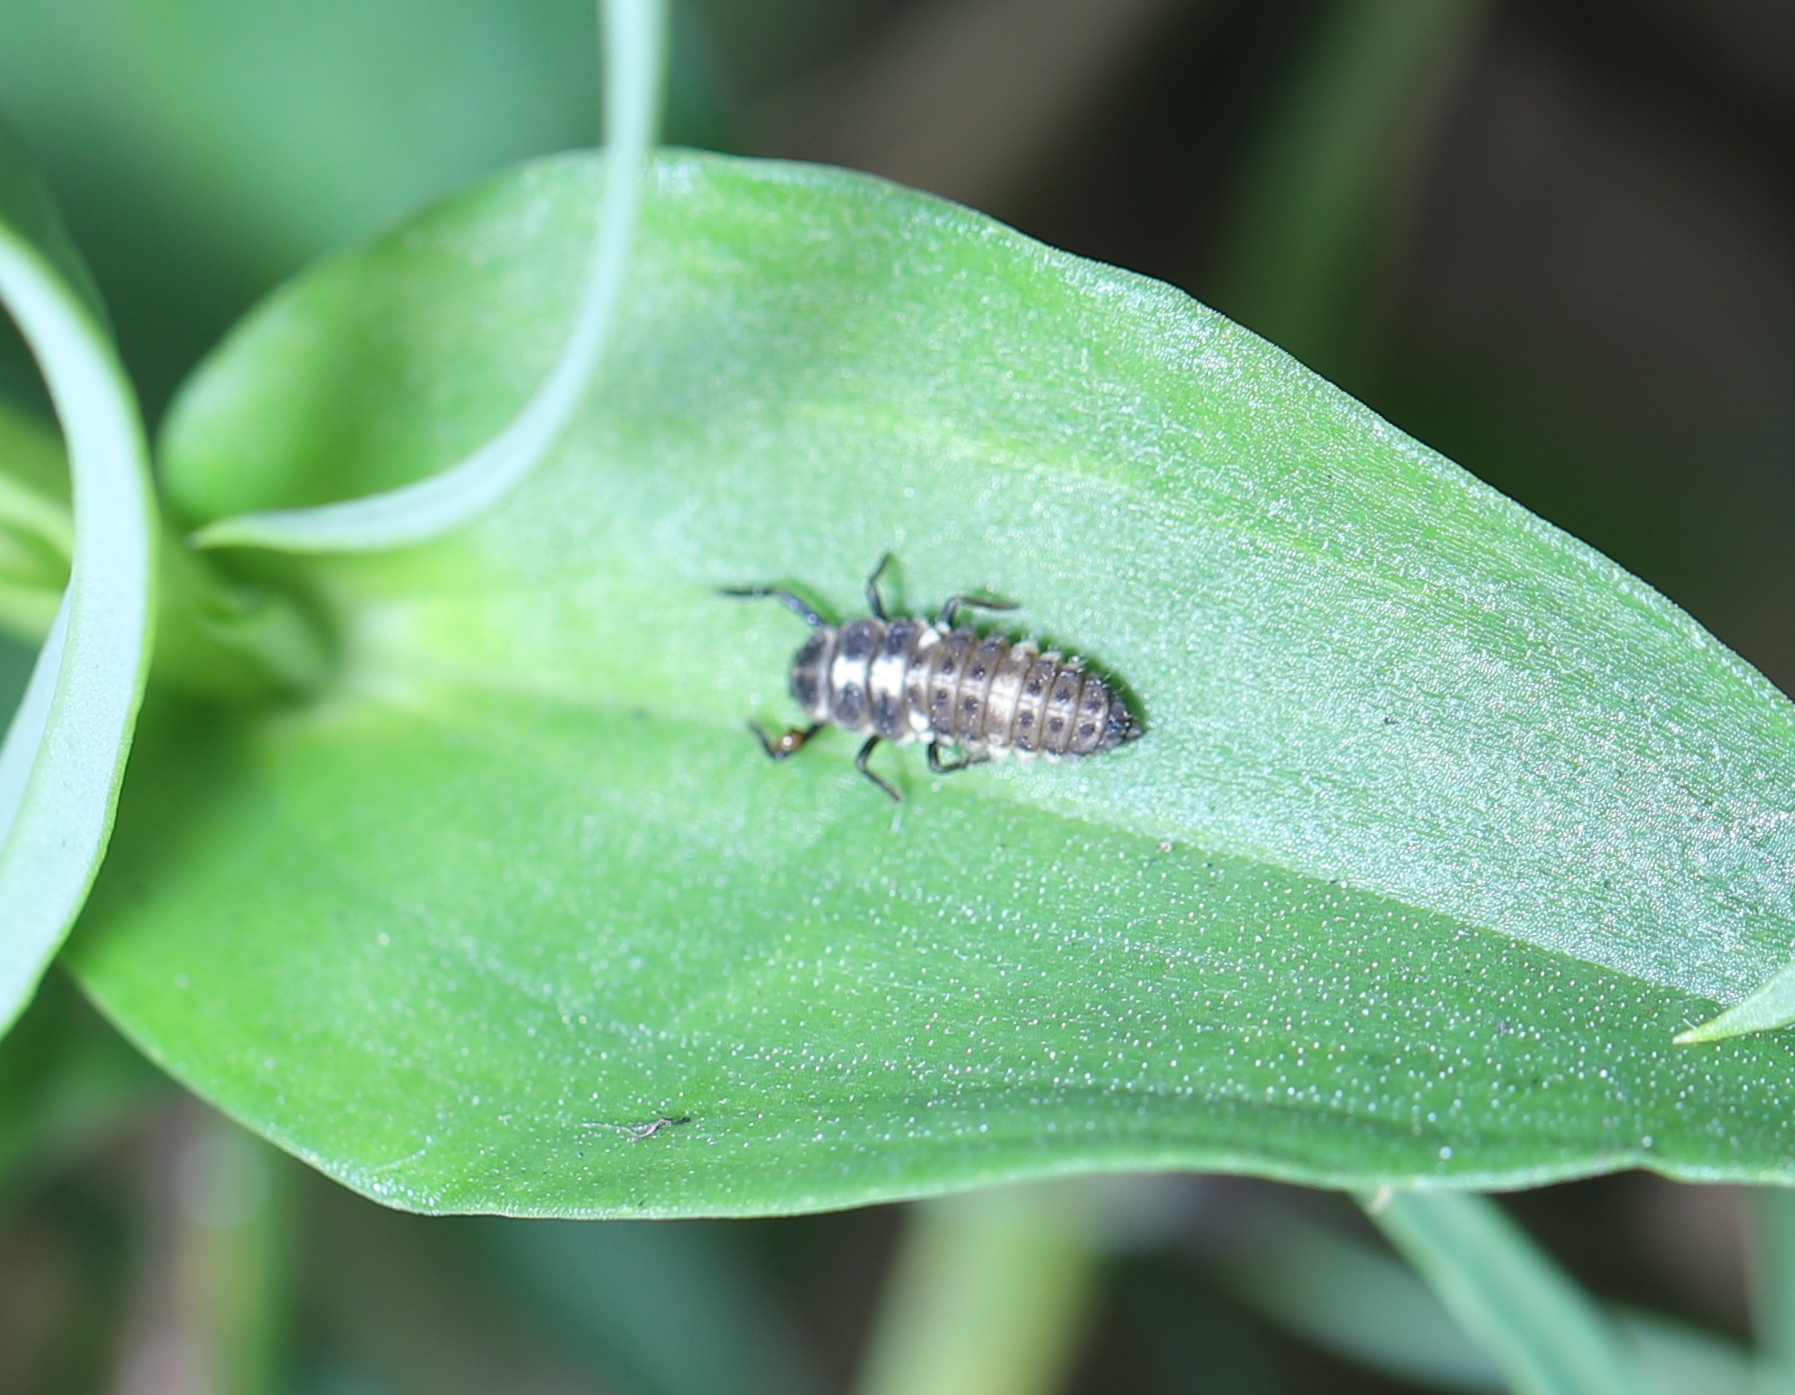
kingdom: Animalia
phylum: Arthropoda
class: Insecta
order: Coleoptera
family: Coccinellidae
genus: Propylaea
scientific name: Propylaea quatuordecimpunctata
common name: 14-spotted ladybird beetle
